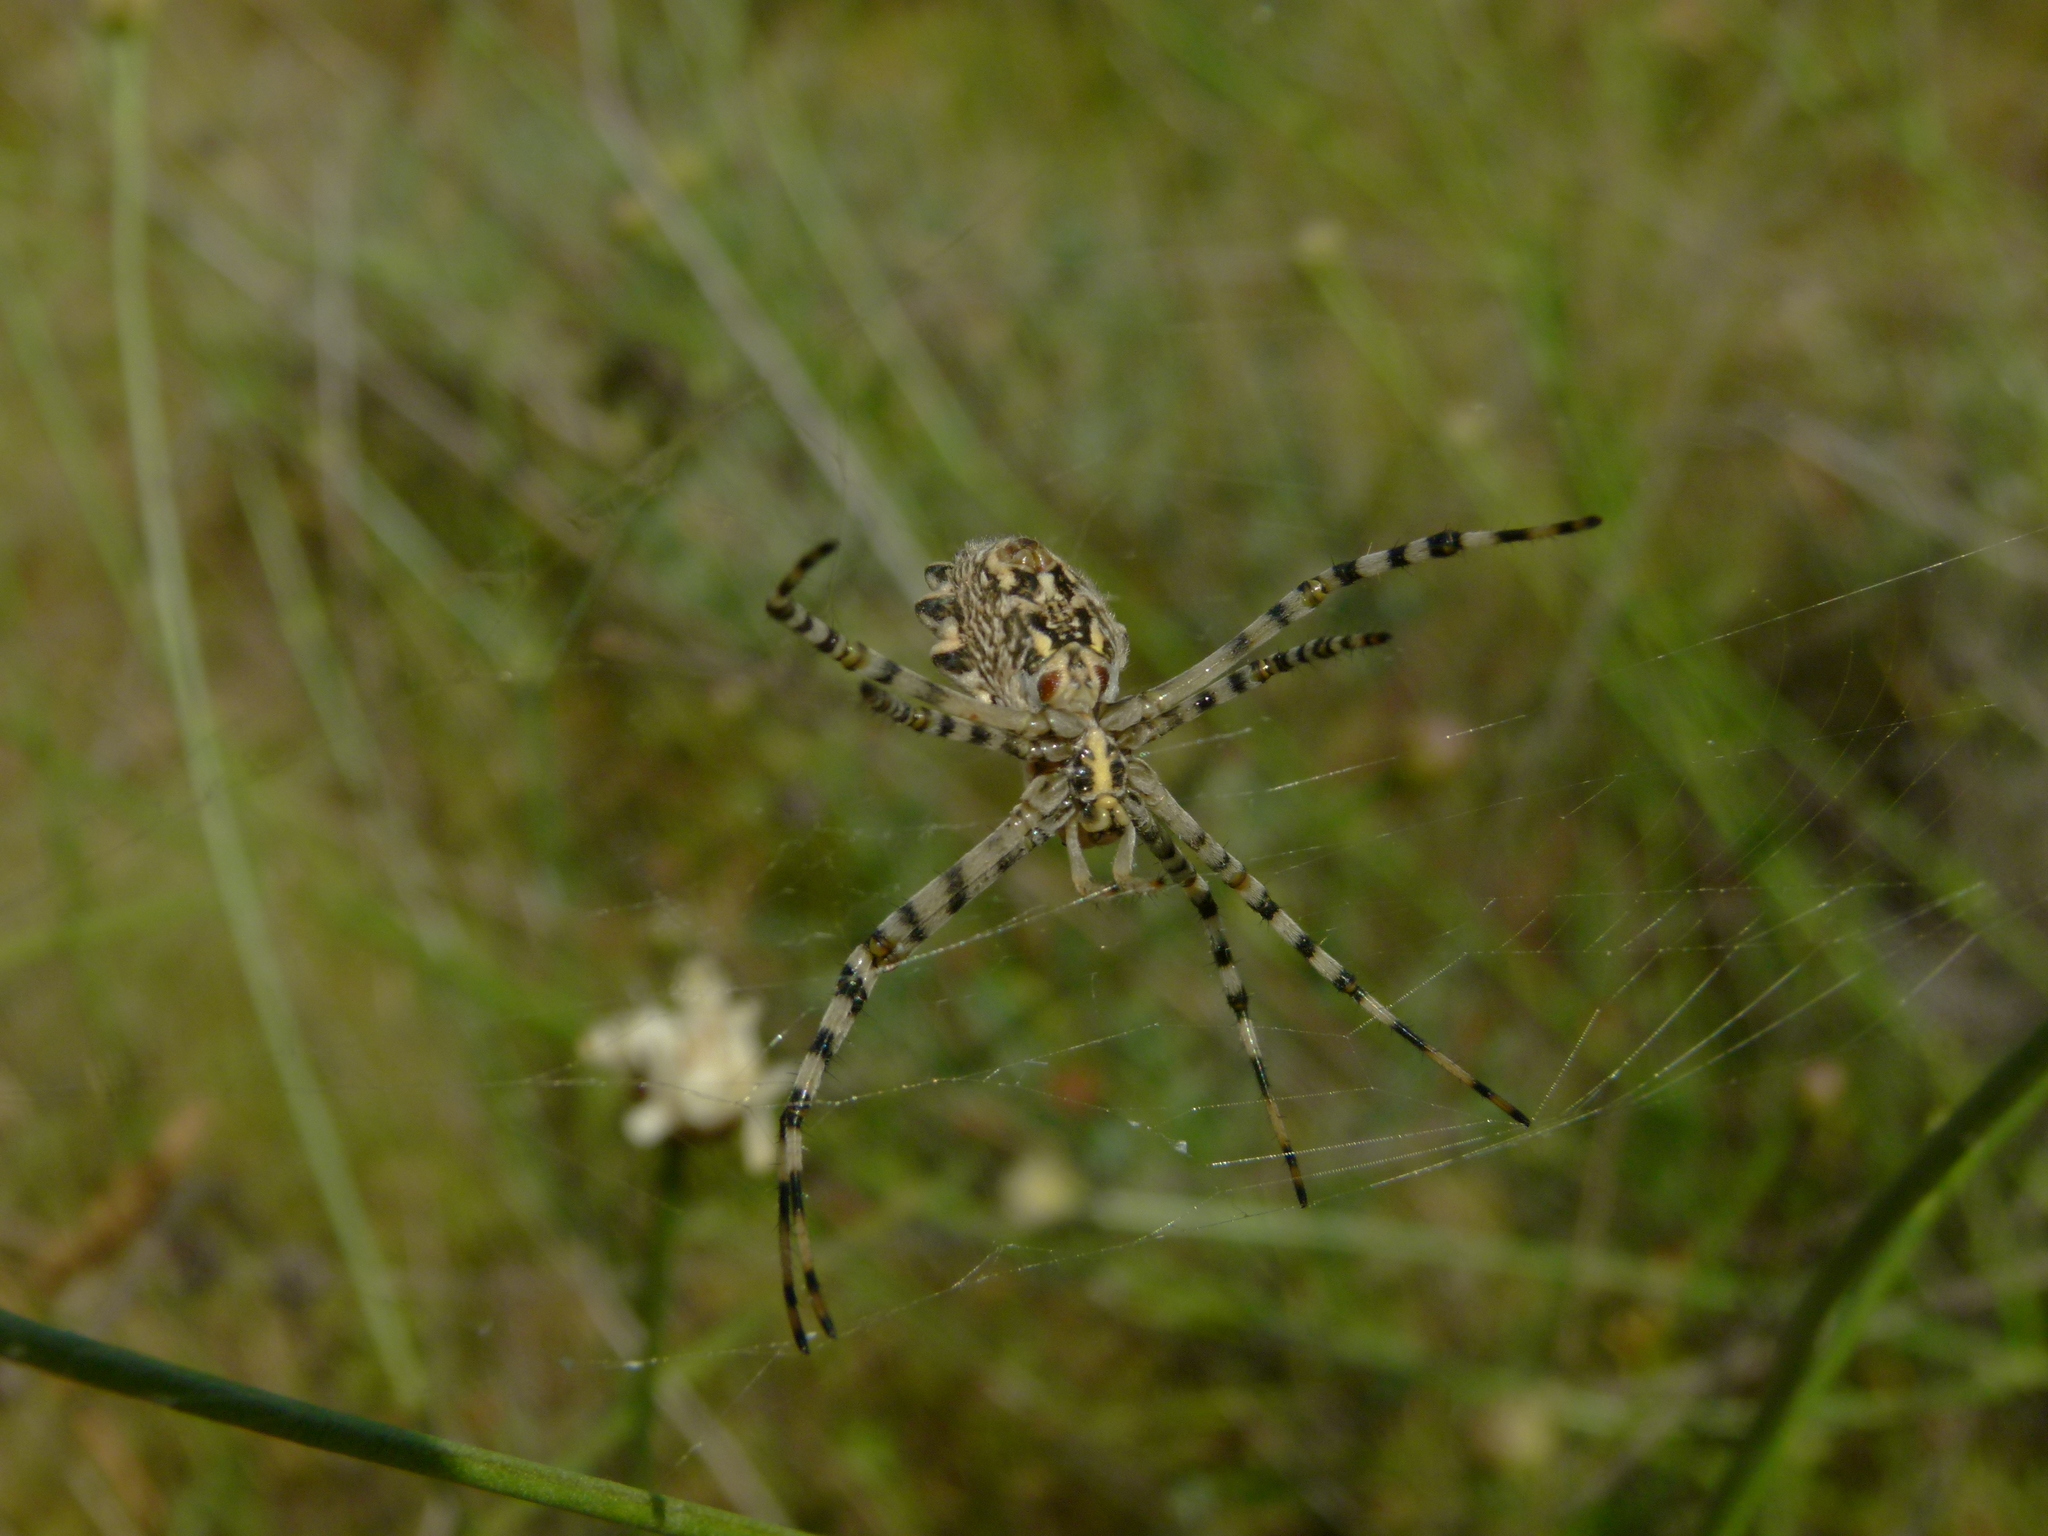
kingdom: Animalia
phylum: Arthropoda
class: Arachnida
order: Araneae
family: Araneidae
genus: Argiope
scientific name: Argiope lobata
